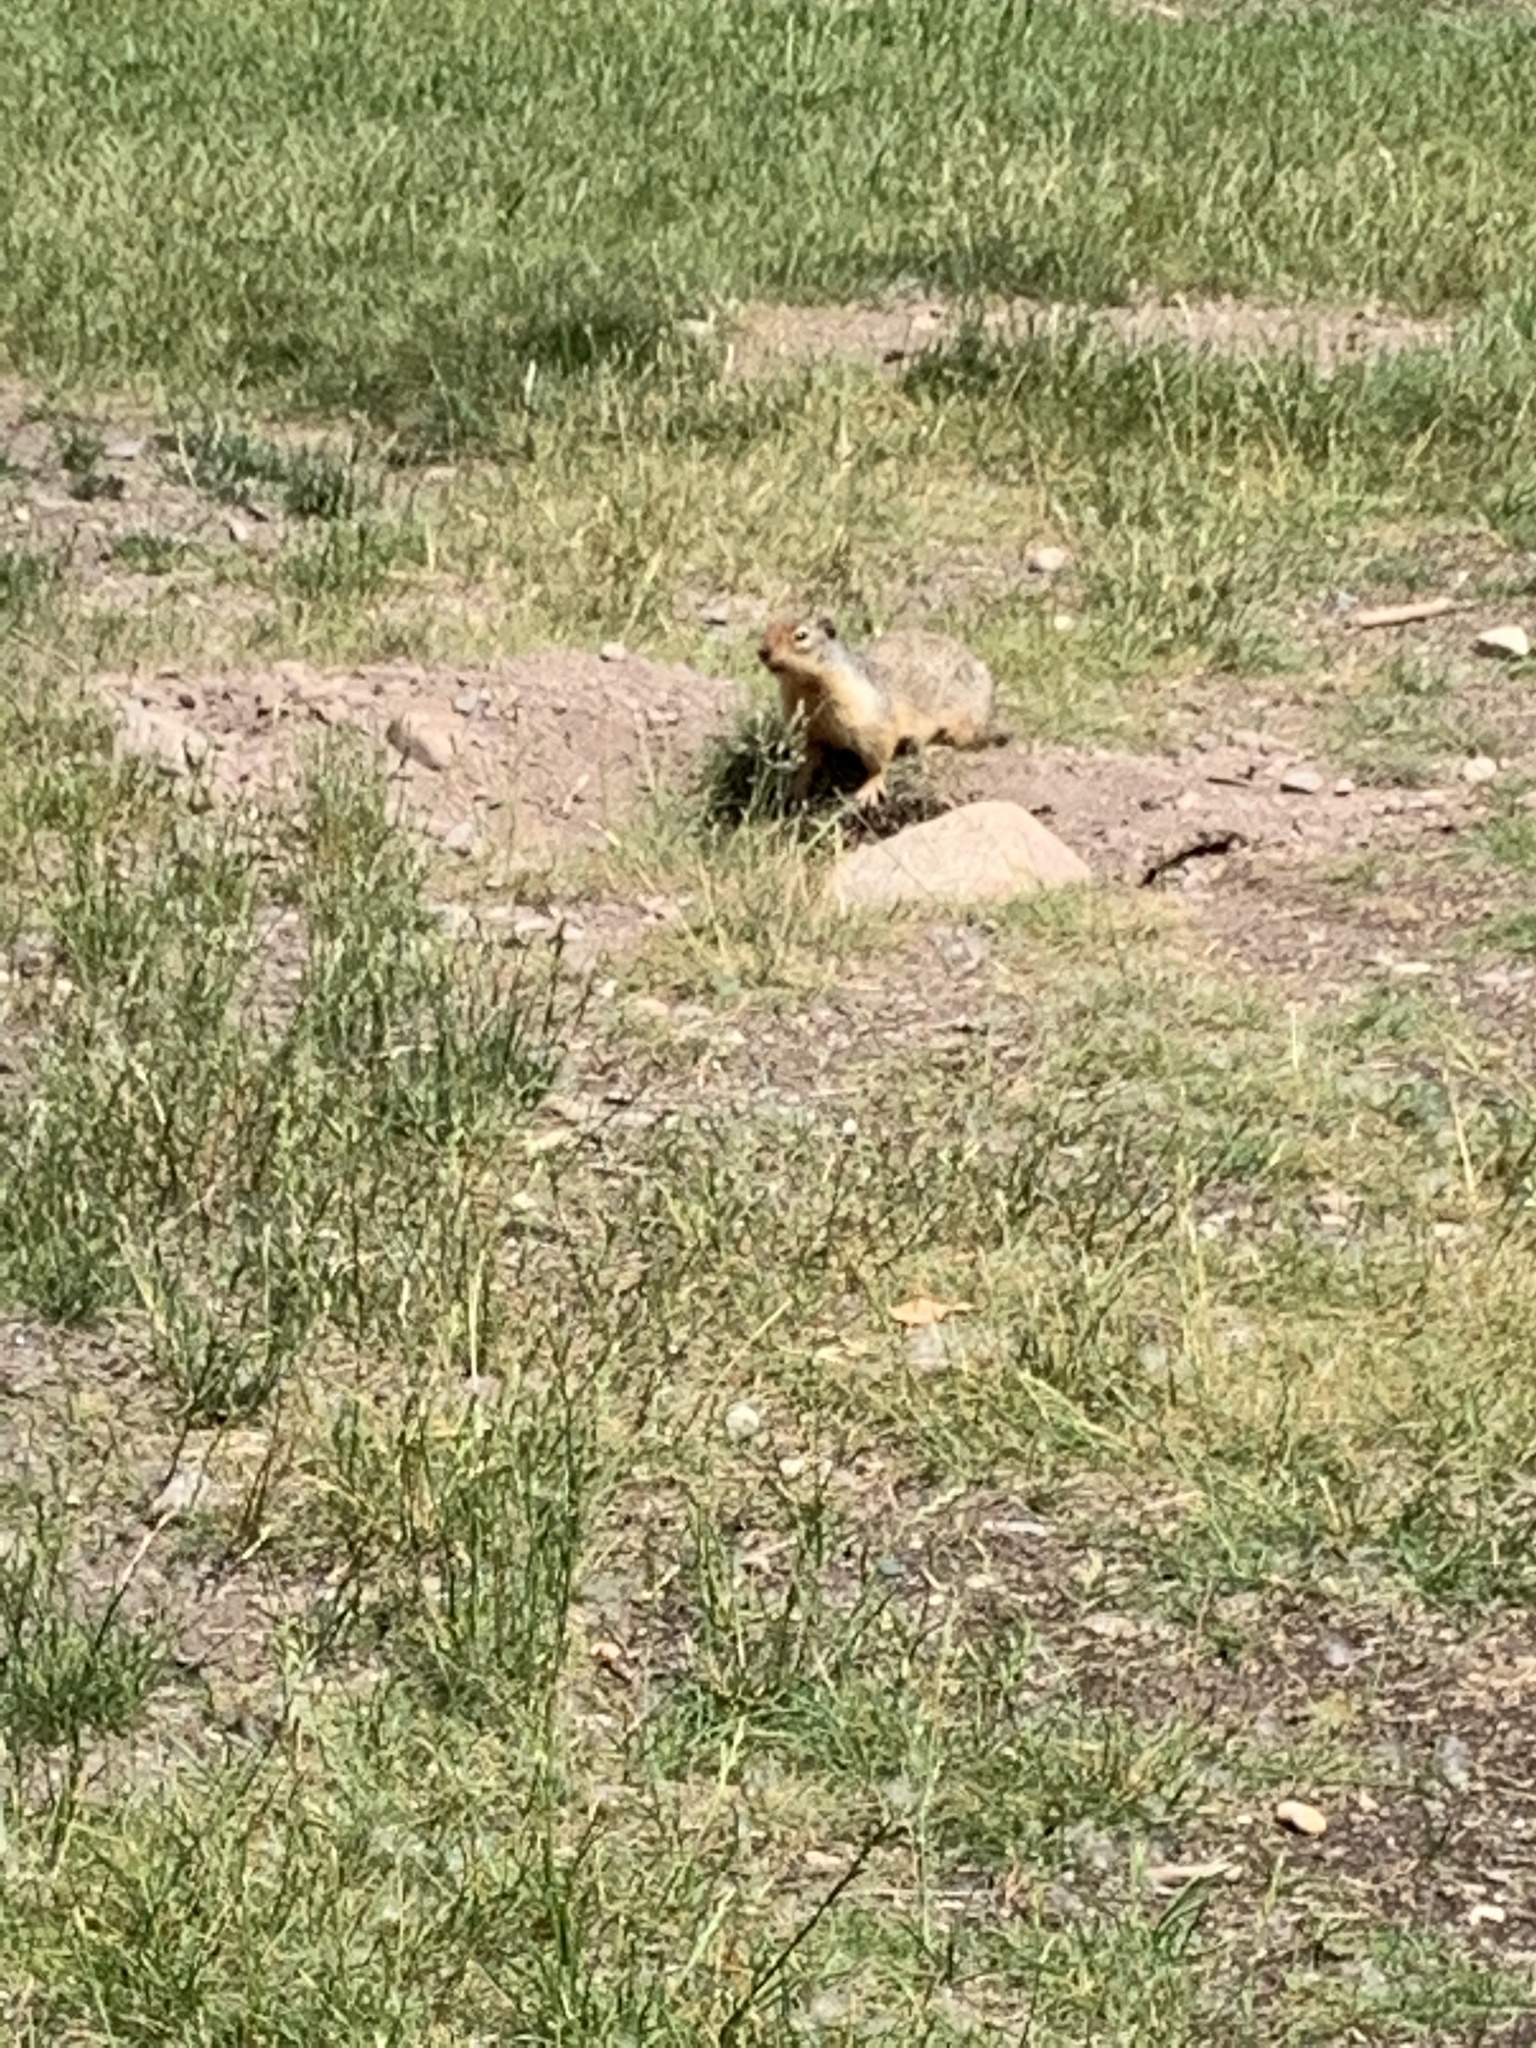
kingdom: Animalia
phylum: Chordata
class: Mammalia
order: Rodentia
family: Sciuridae
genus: Urocitellus
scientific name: Urocitellus columbianus
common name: Columbian ground squirrel
